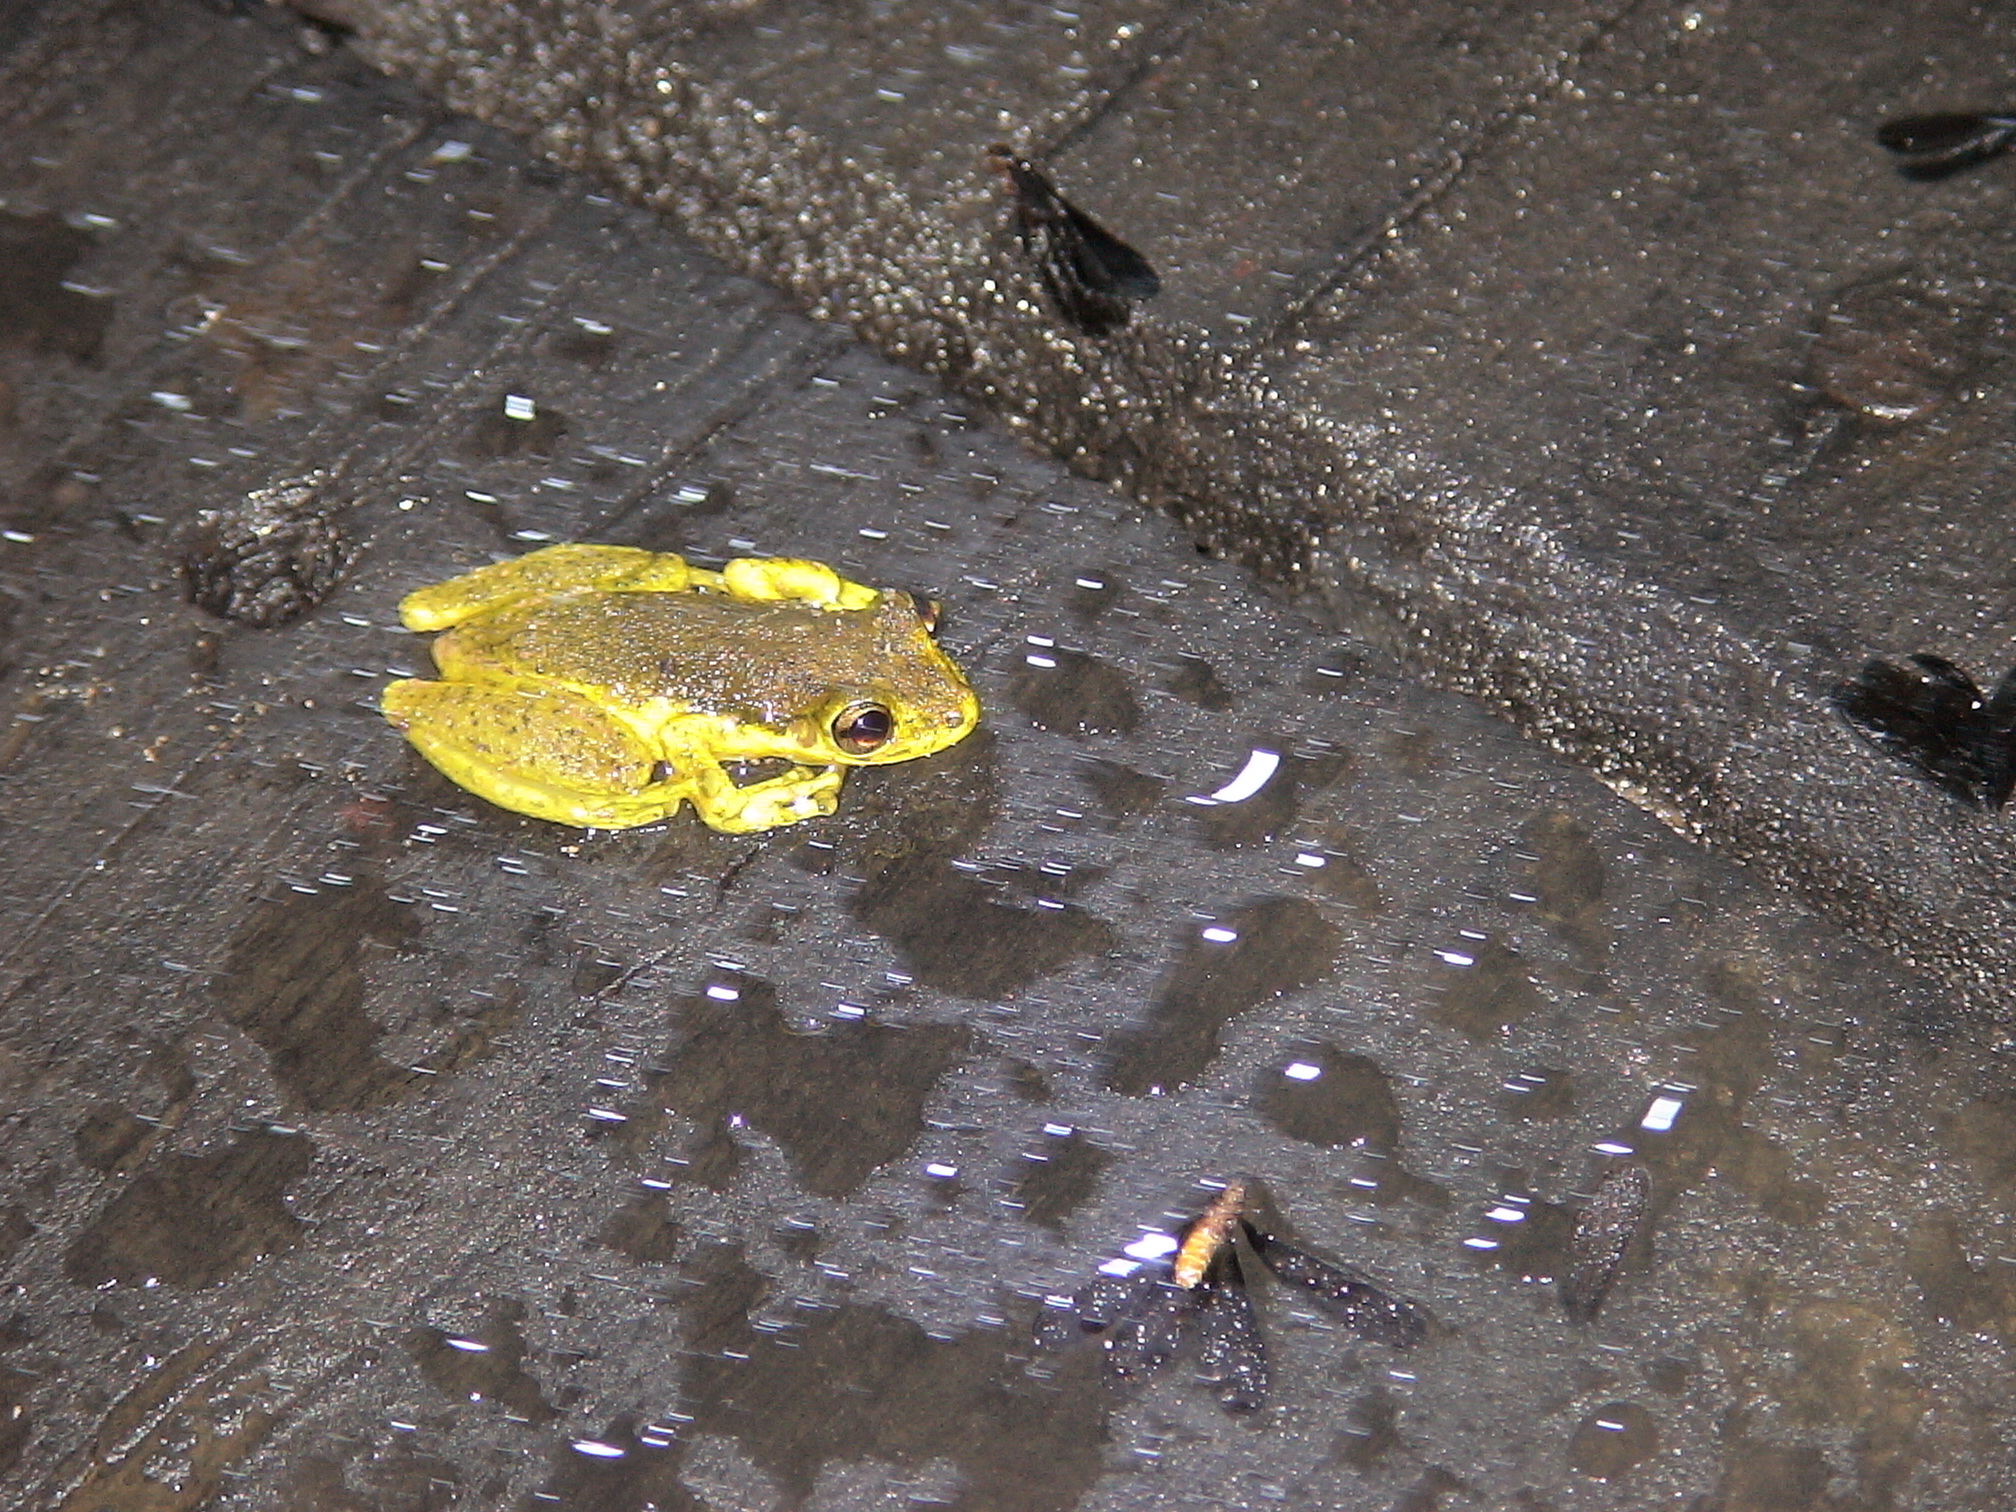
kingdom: Animalia
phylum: Chordata
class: Amphibia
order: Anura
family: Hylidae
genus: Scinax
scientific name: Scinax chiquitanus
